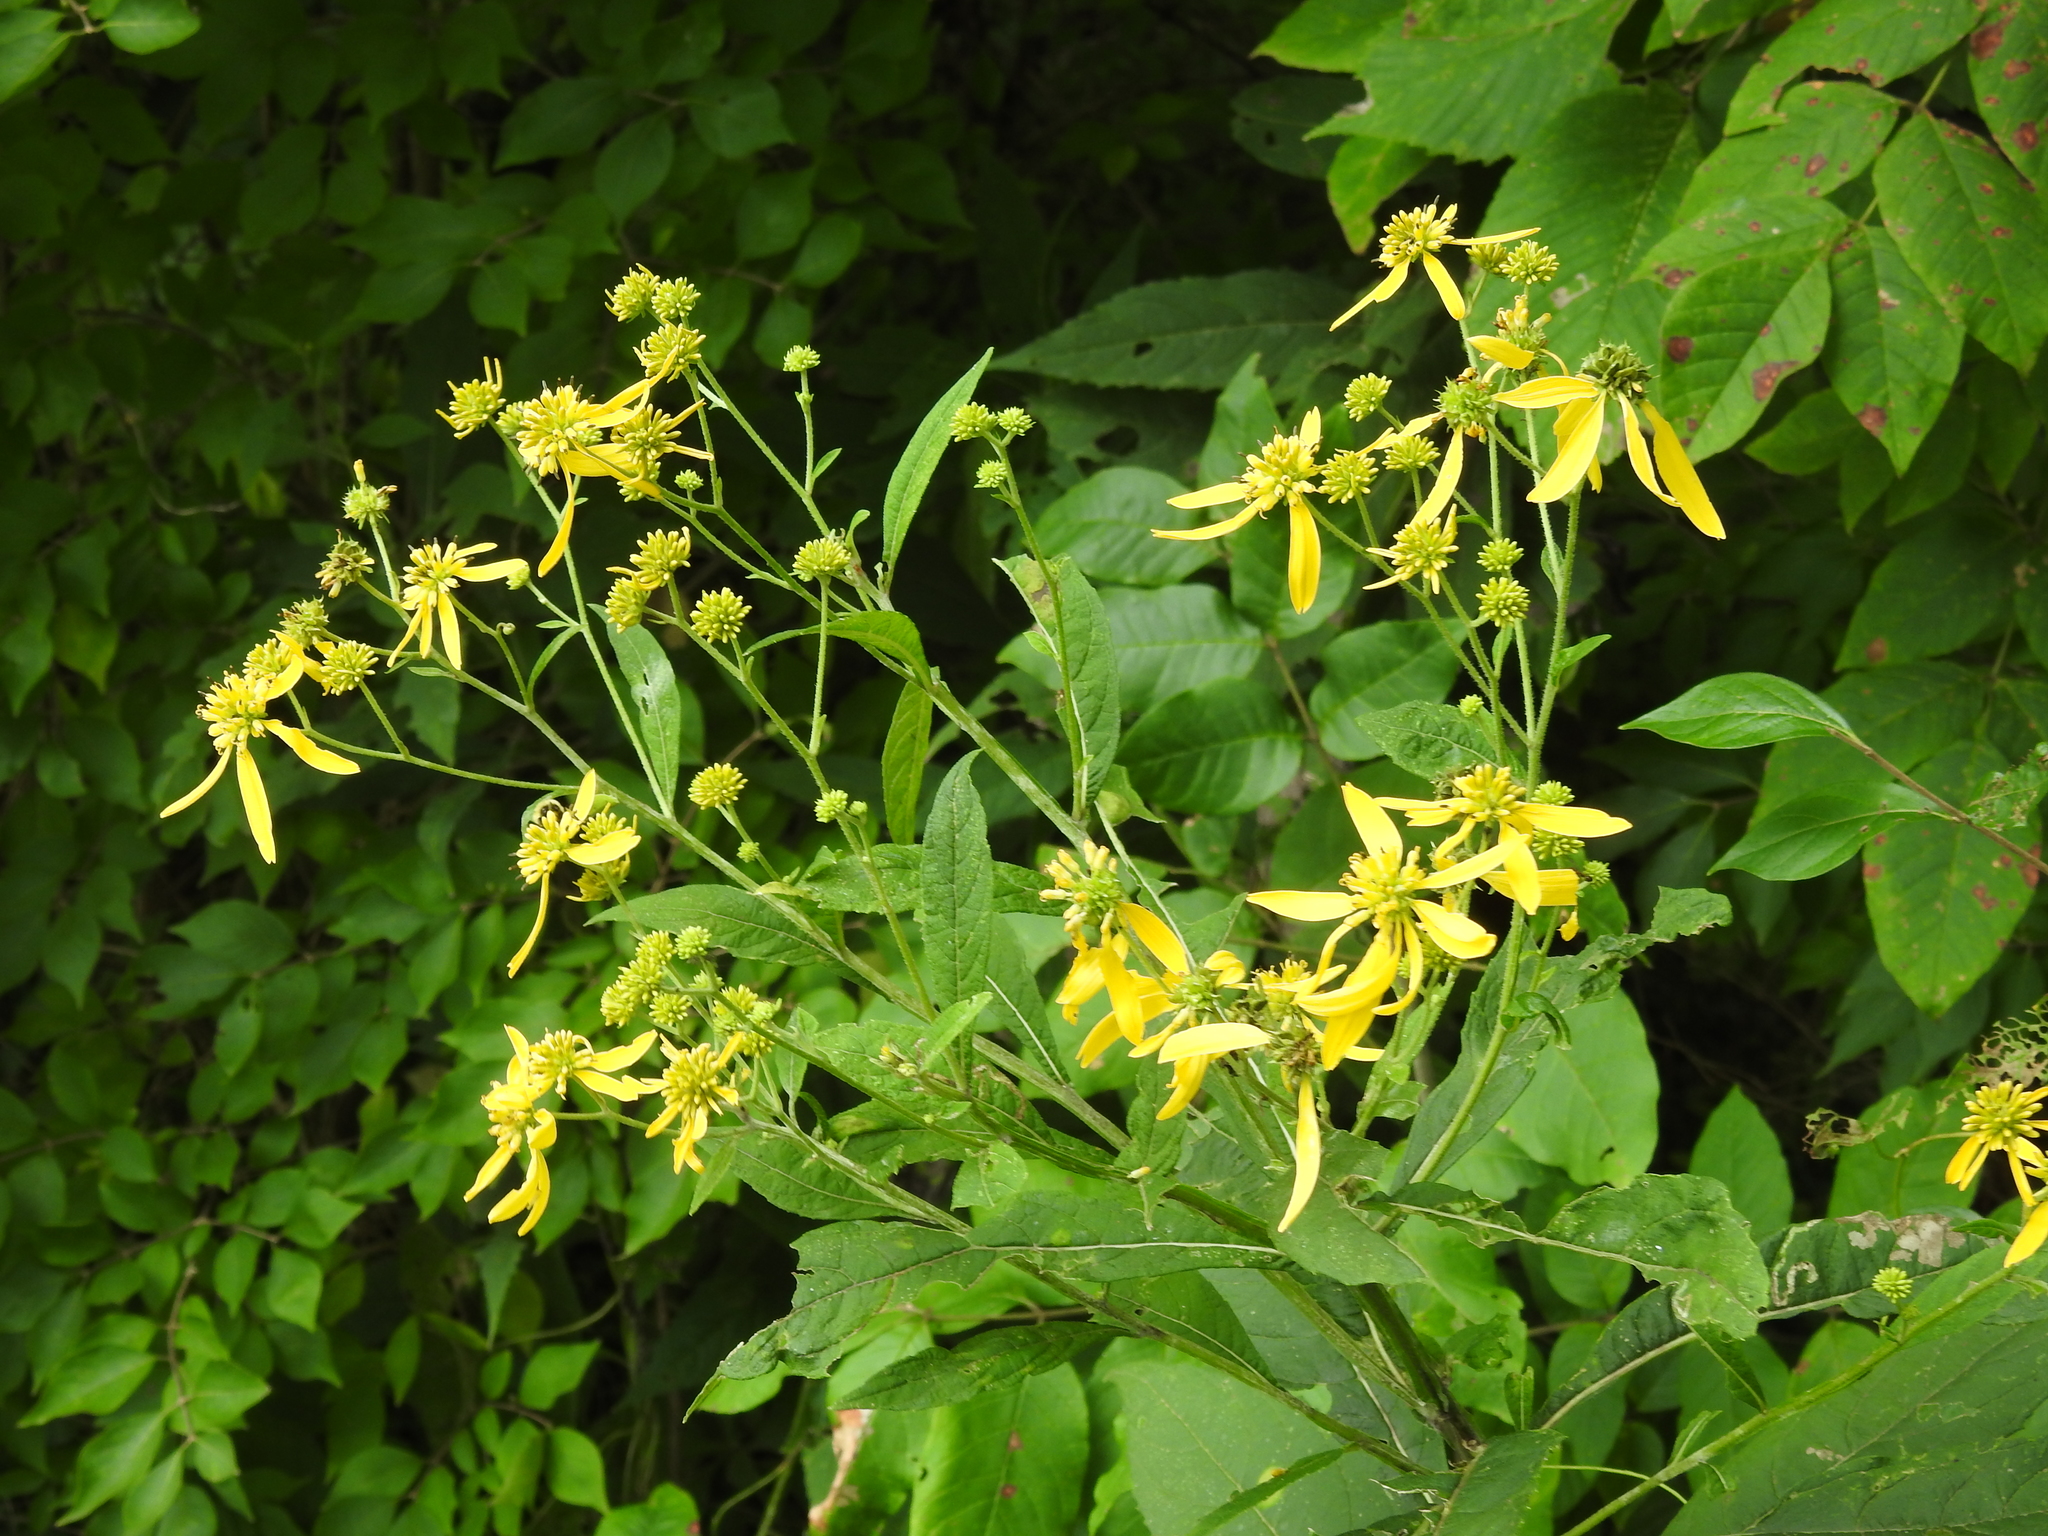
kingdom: Plantae
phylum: Tracheophyta
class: Magnoliopsida
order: Asterales
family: Asteraceae
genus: Verbesina
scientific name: Verbesina alternifolia
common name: Wingstem
